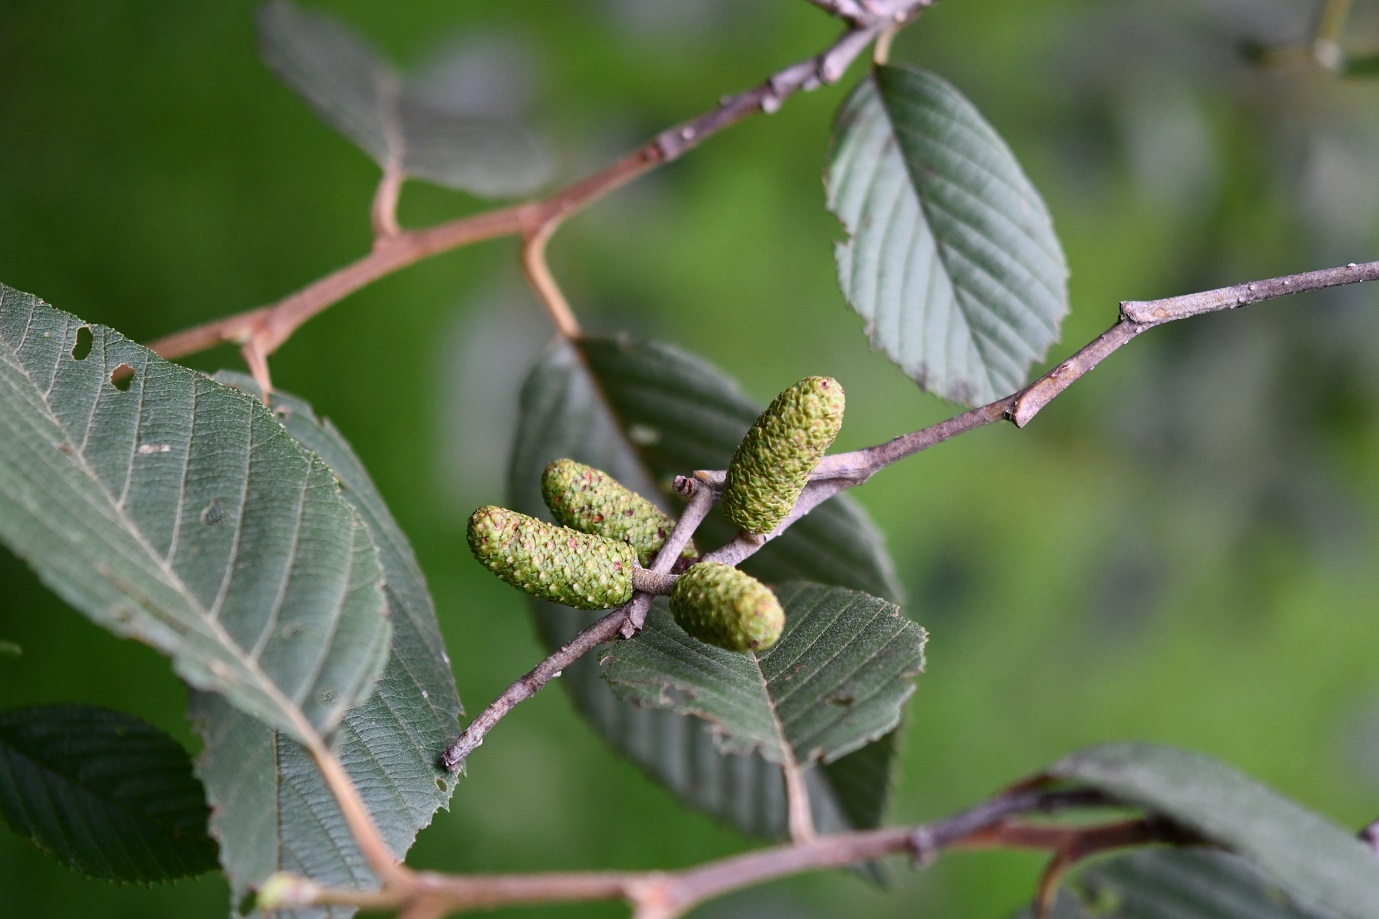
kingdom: Plantae
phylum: Tracheophyta
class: Magnoliopsida
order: Fagales
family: Betulaceae
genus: Alnus
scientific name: Alnus acuminata
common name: Alder
